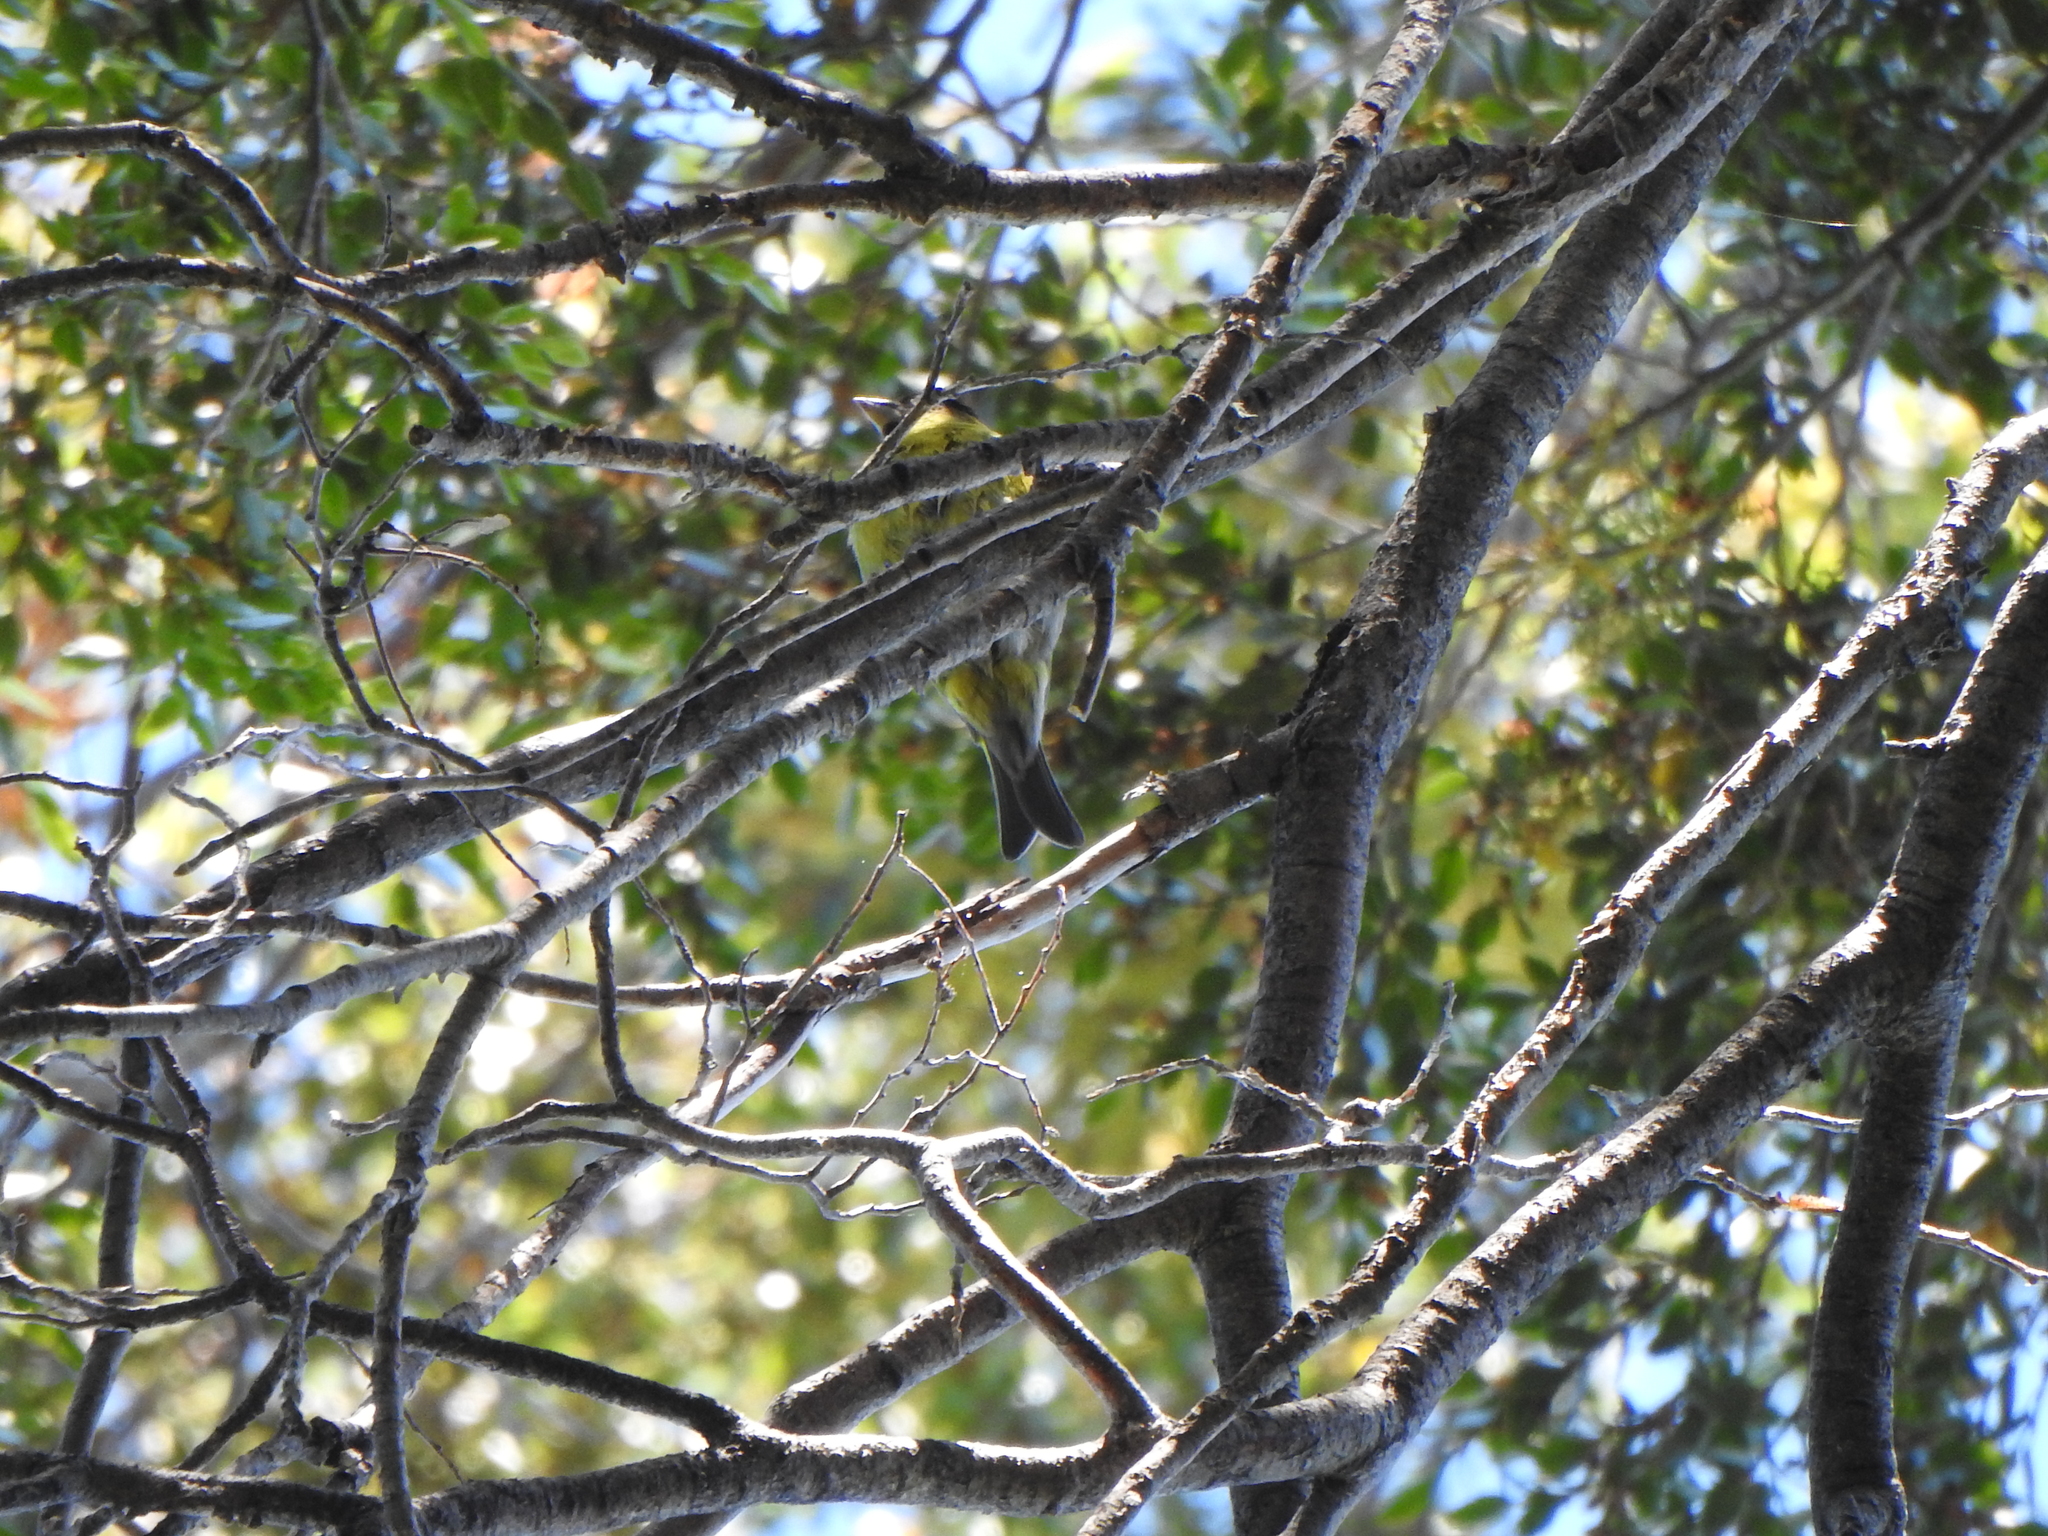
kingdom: Animalia
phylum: Chordata
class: Aves
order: Passeriformes
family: Fringillidae
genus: Spinus
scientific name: Spinus barbatus
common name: Black-chinned siskin
